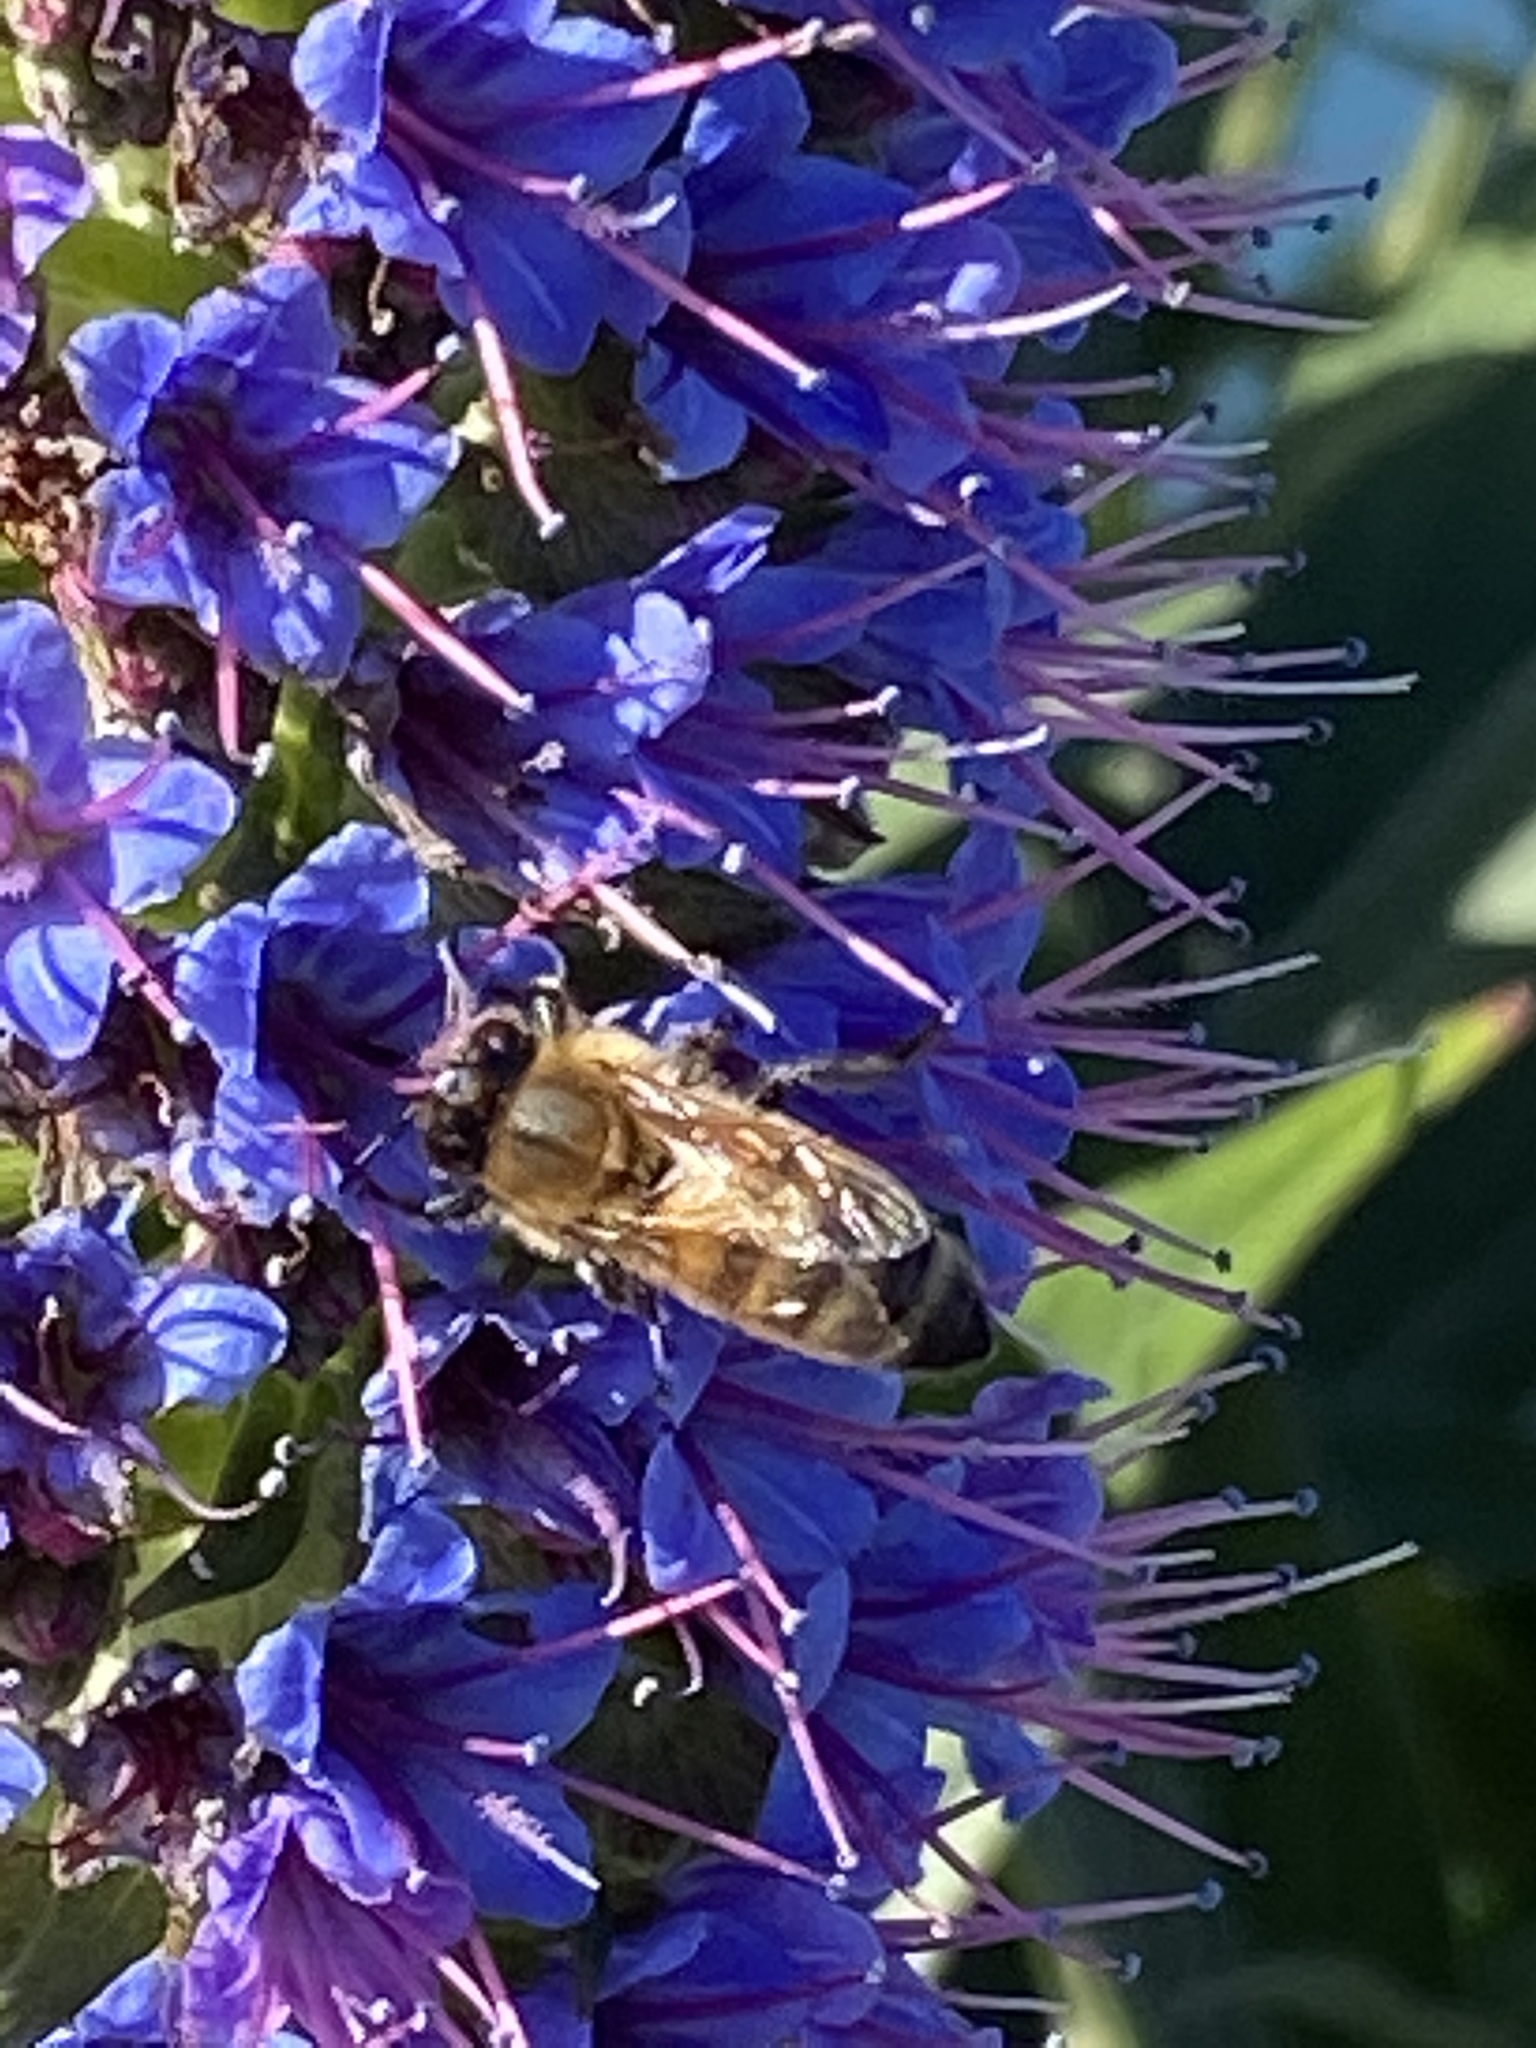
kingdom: Animalia
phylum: Arthropoda
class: Insecta
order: Hymenoptera
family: Apidae
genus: Apis
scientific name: Apis mellifera
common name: Honey bee
